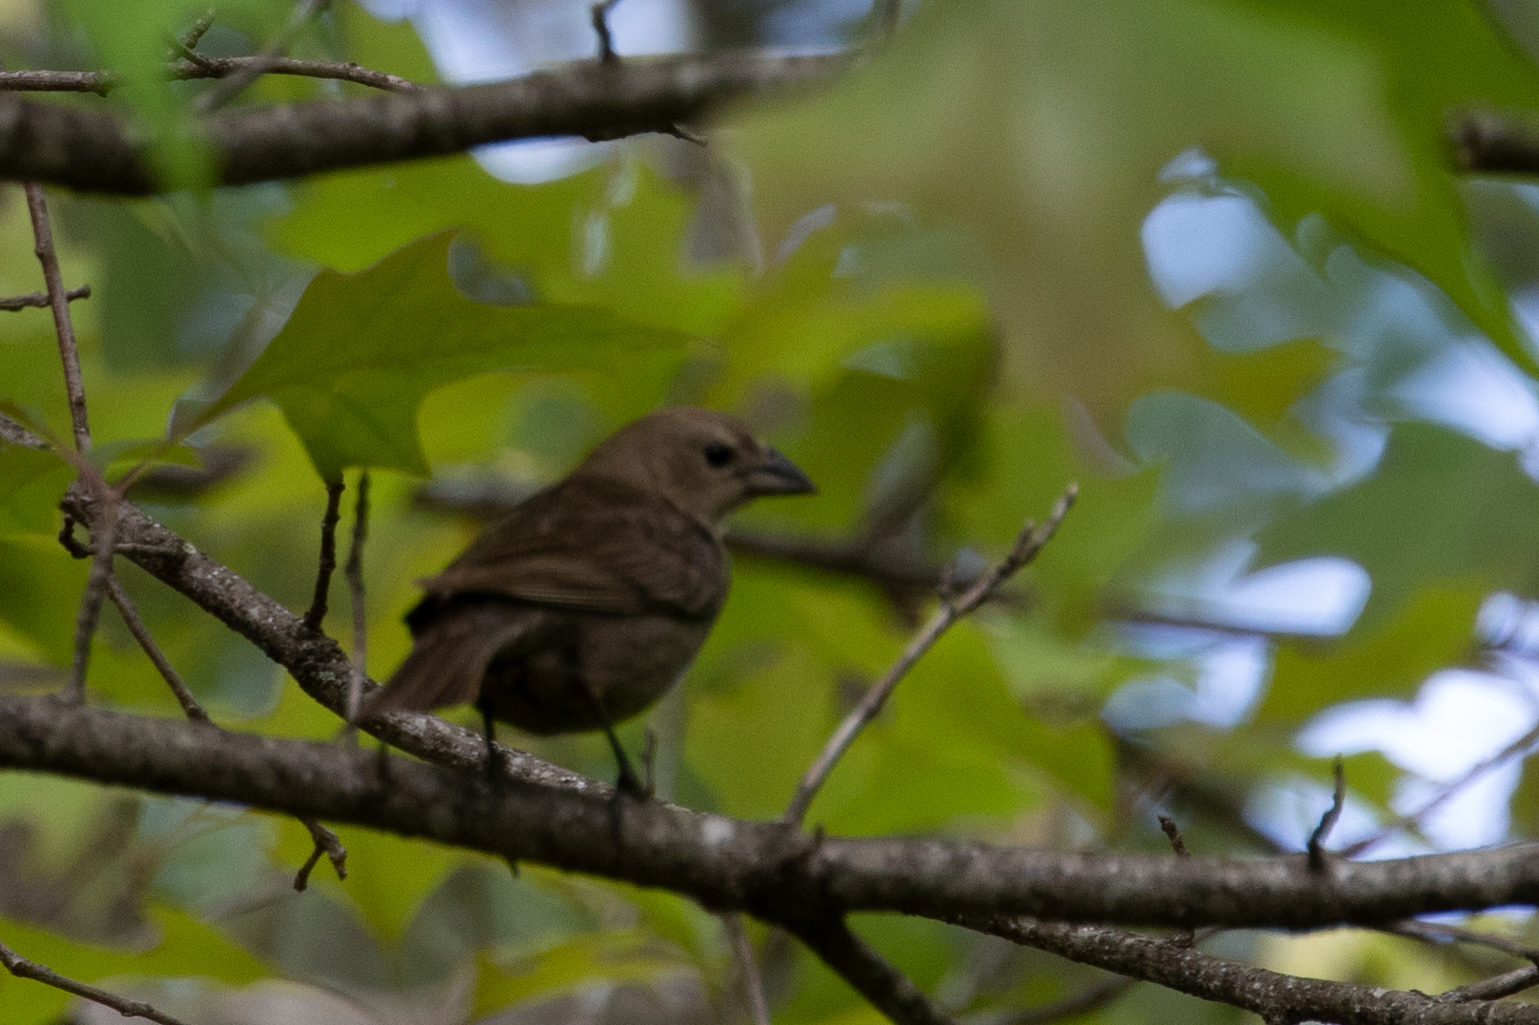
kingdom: Animalia
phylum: Chordata
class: Aves
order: Passeriformes
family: Icteridae
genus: Molothrus
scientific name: Molothrus ater
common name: Brown-headed cowbird
